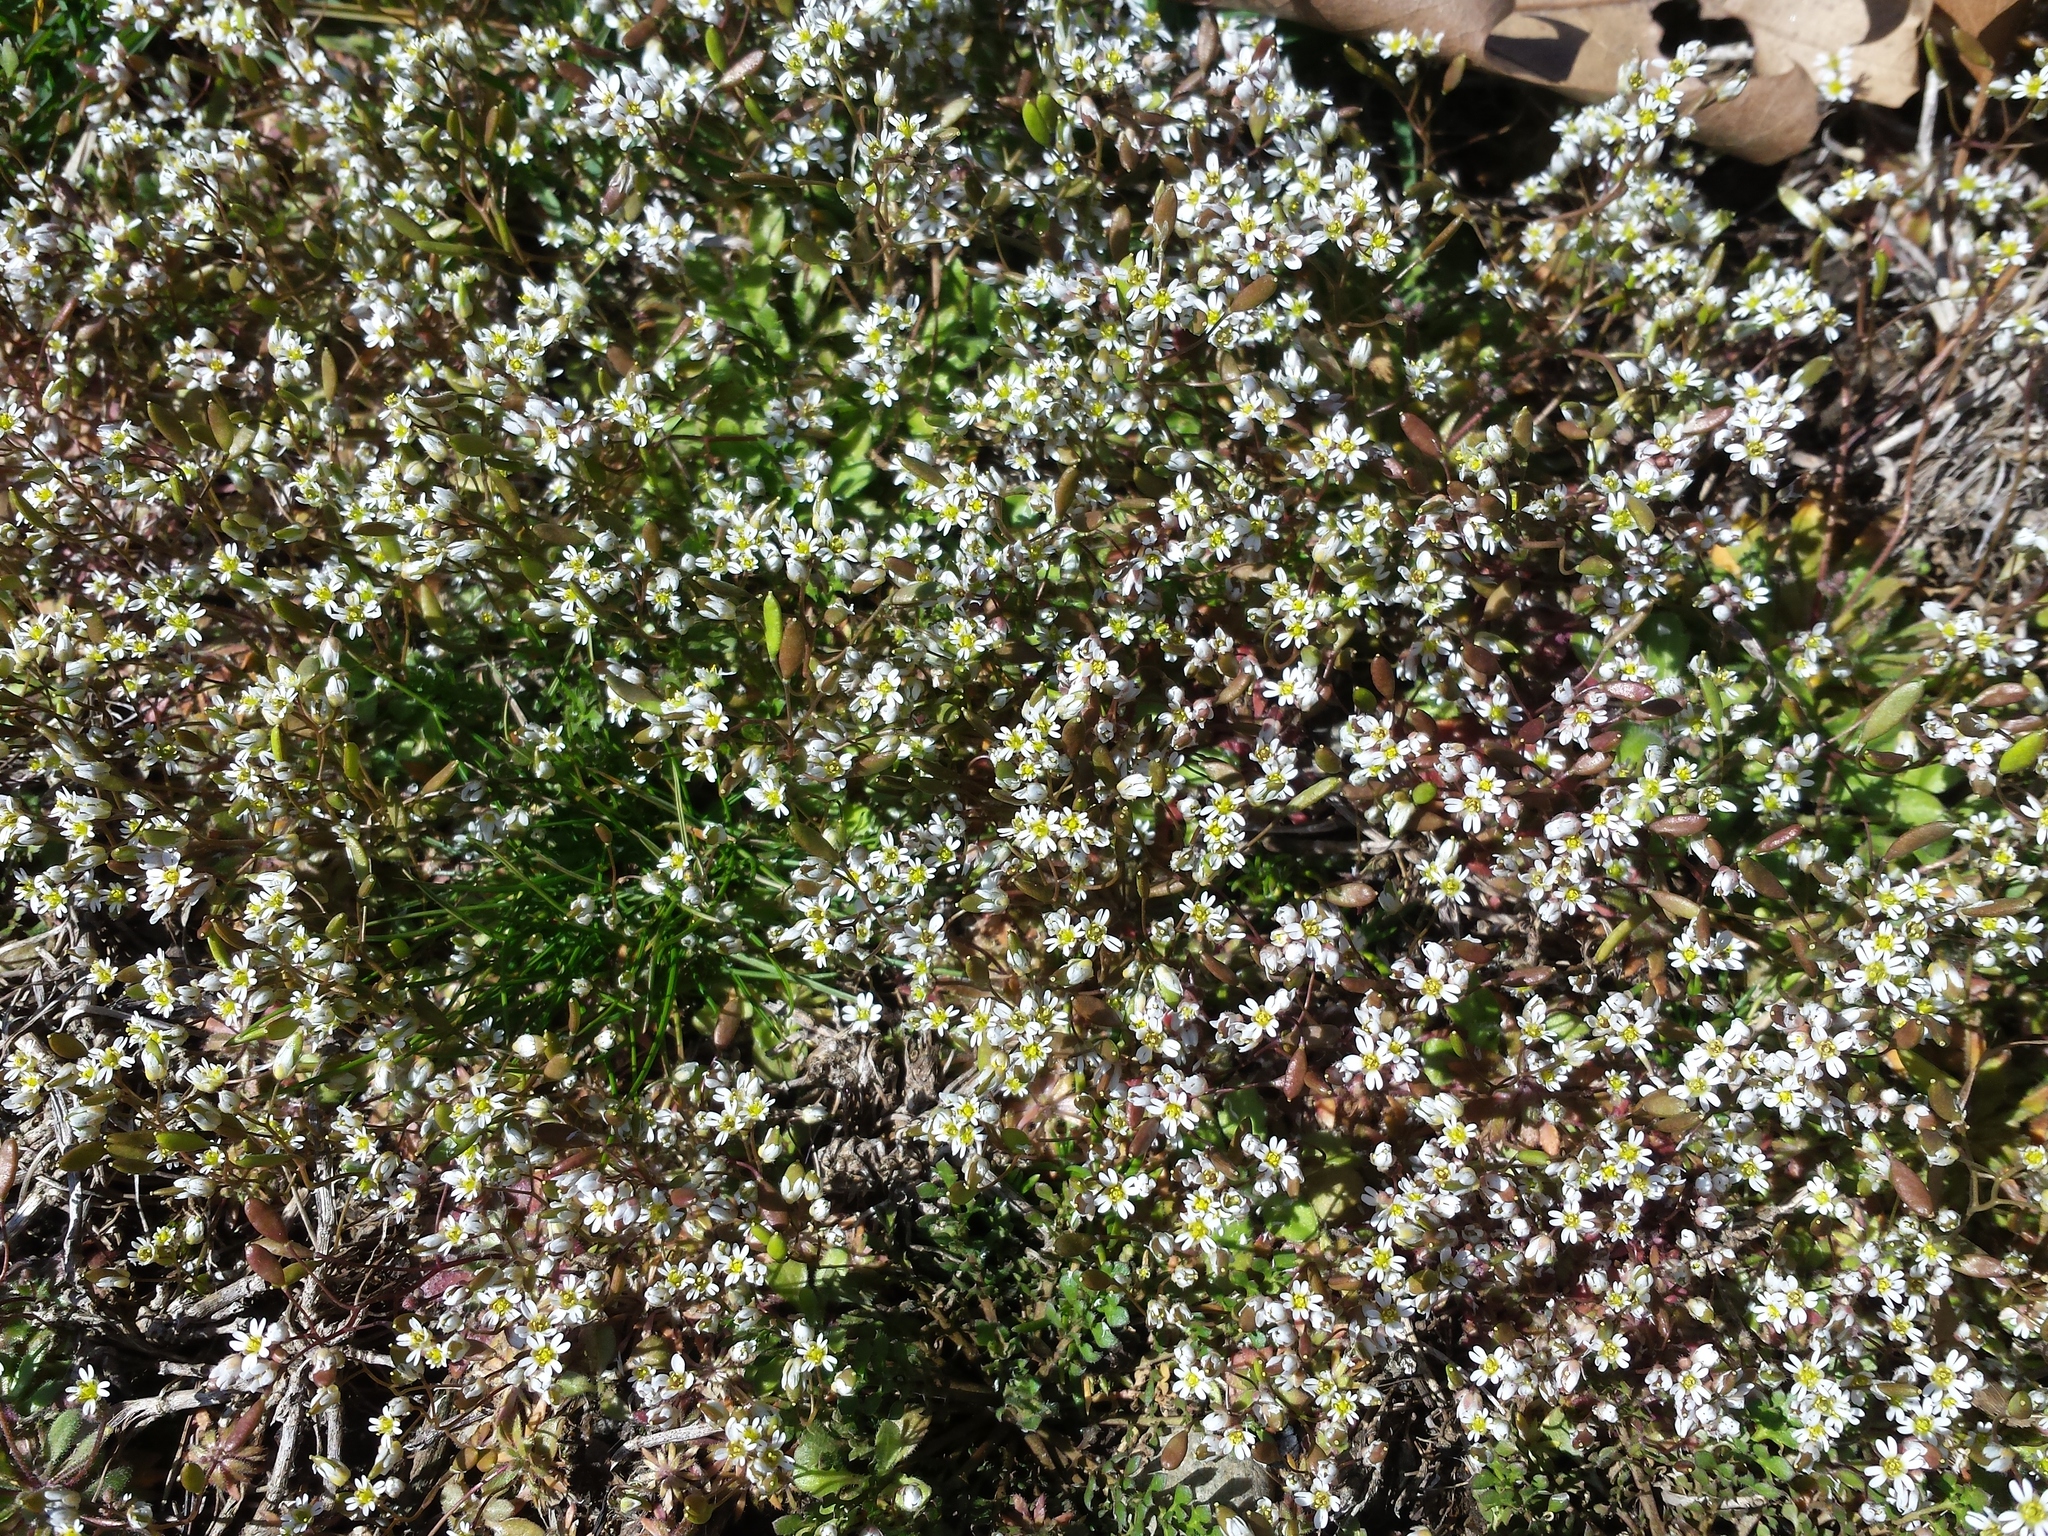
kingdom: Plantae
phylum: Tracheophyta
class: Magnoliopsida
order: Brassicales
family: Brassicaceae
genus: Draba
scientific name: Draba verna
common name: Spring draba
